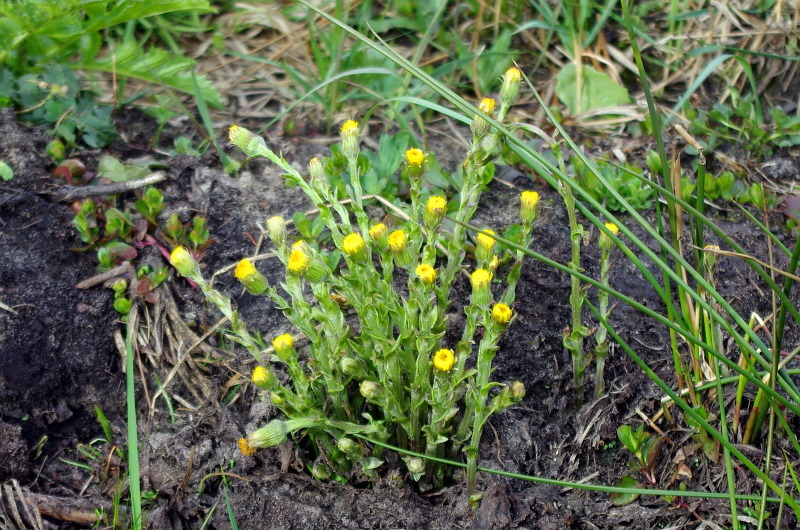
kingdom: Plantae
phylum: Tracheophyta
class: Magnoliopsida
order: Asterales
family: Asteraceae
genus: Tussilago
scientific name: Tussilago farfara
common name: Coltsfoot
